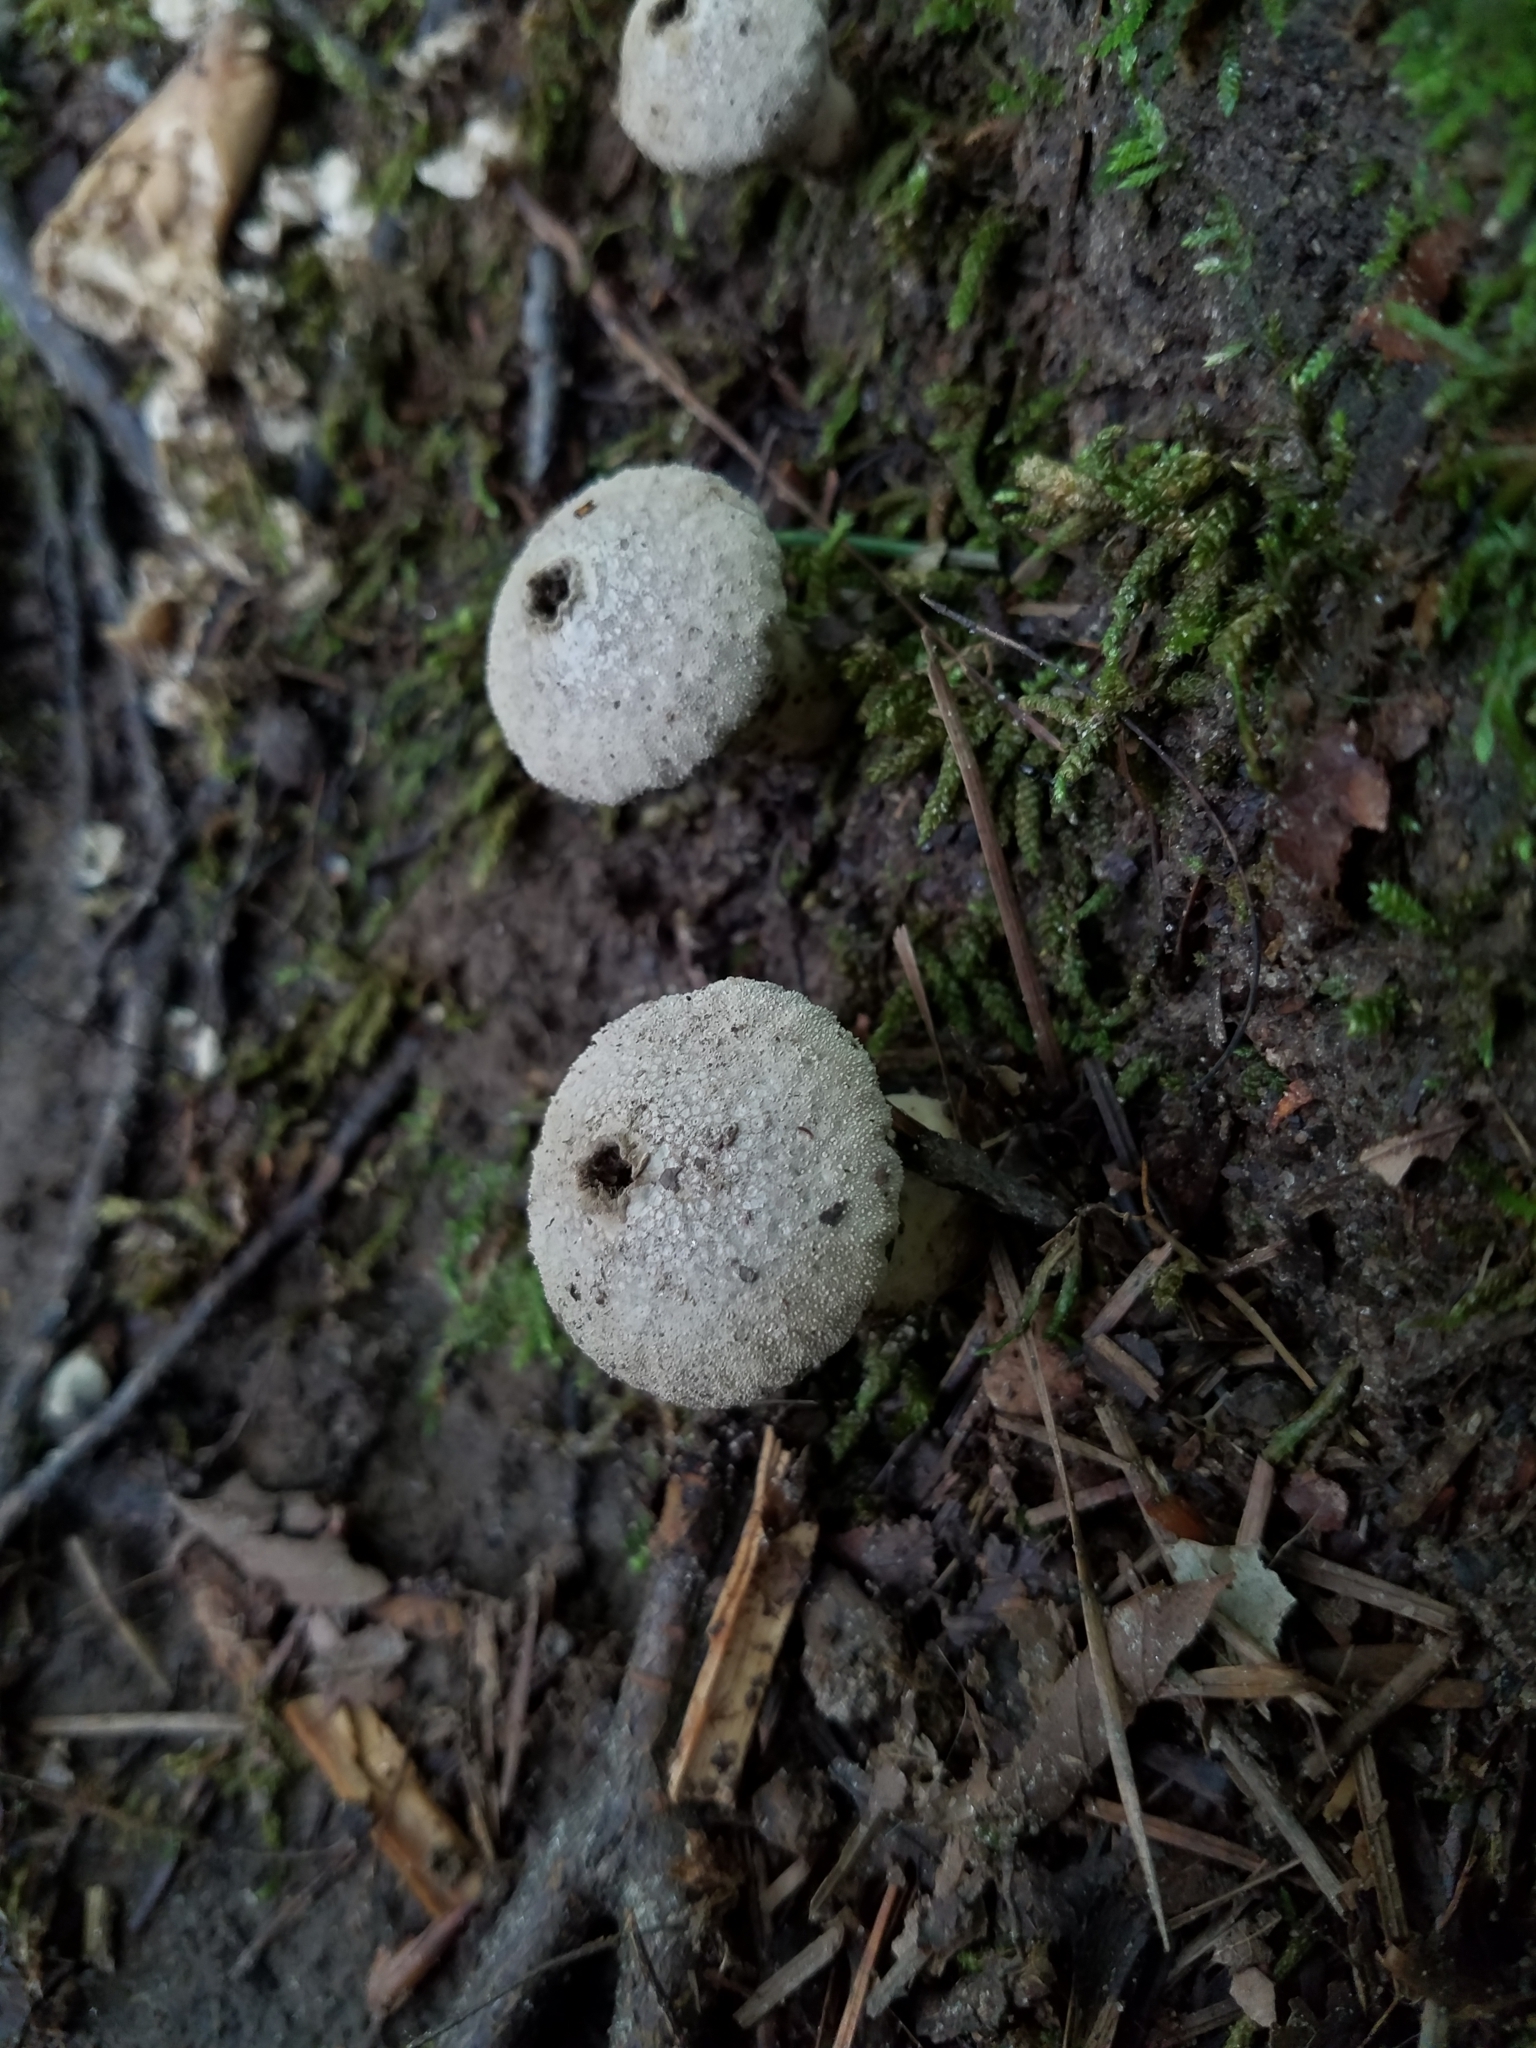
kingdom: Fungi
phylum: Basidiomycota
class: Agaricomycetes
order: Agaricales
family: Lycoperdaceae
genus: Lycoperdon
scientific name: Lycoperdon perlatum
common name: Common puffball
